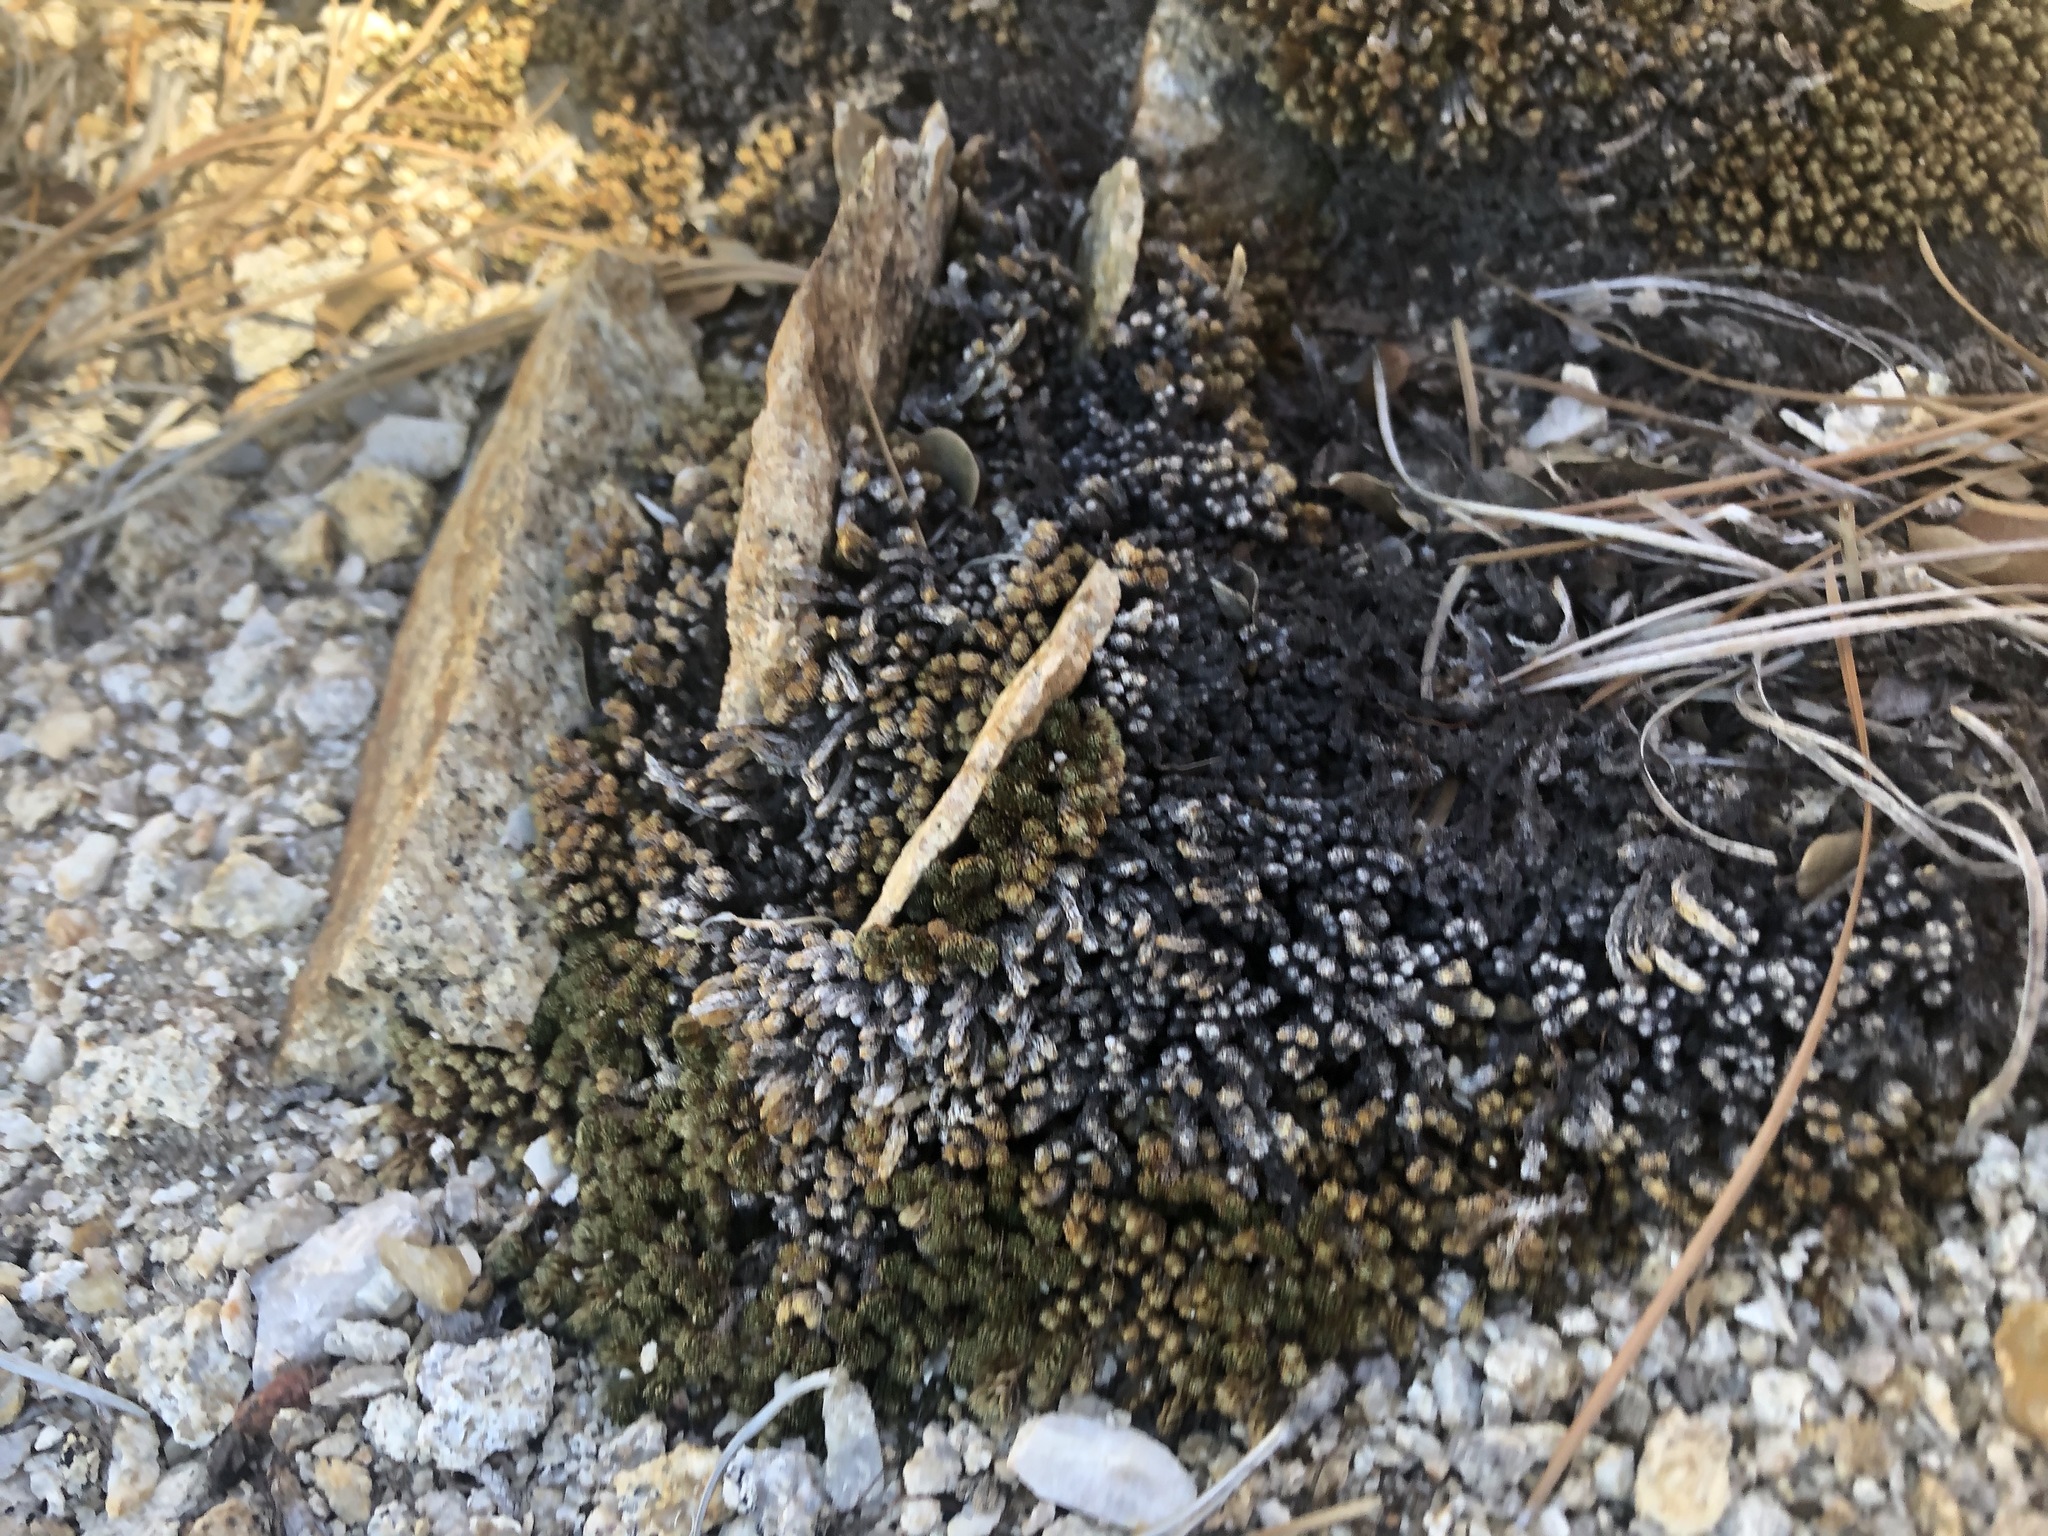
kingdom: Plantae
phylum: Tracheophyta
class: Lycopodiopsida
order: Selaginellales
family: Selaginellaceae
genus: Selaginella
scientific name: Selaginella watsonii
